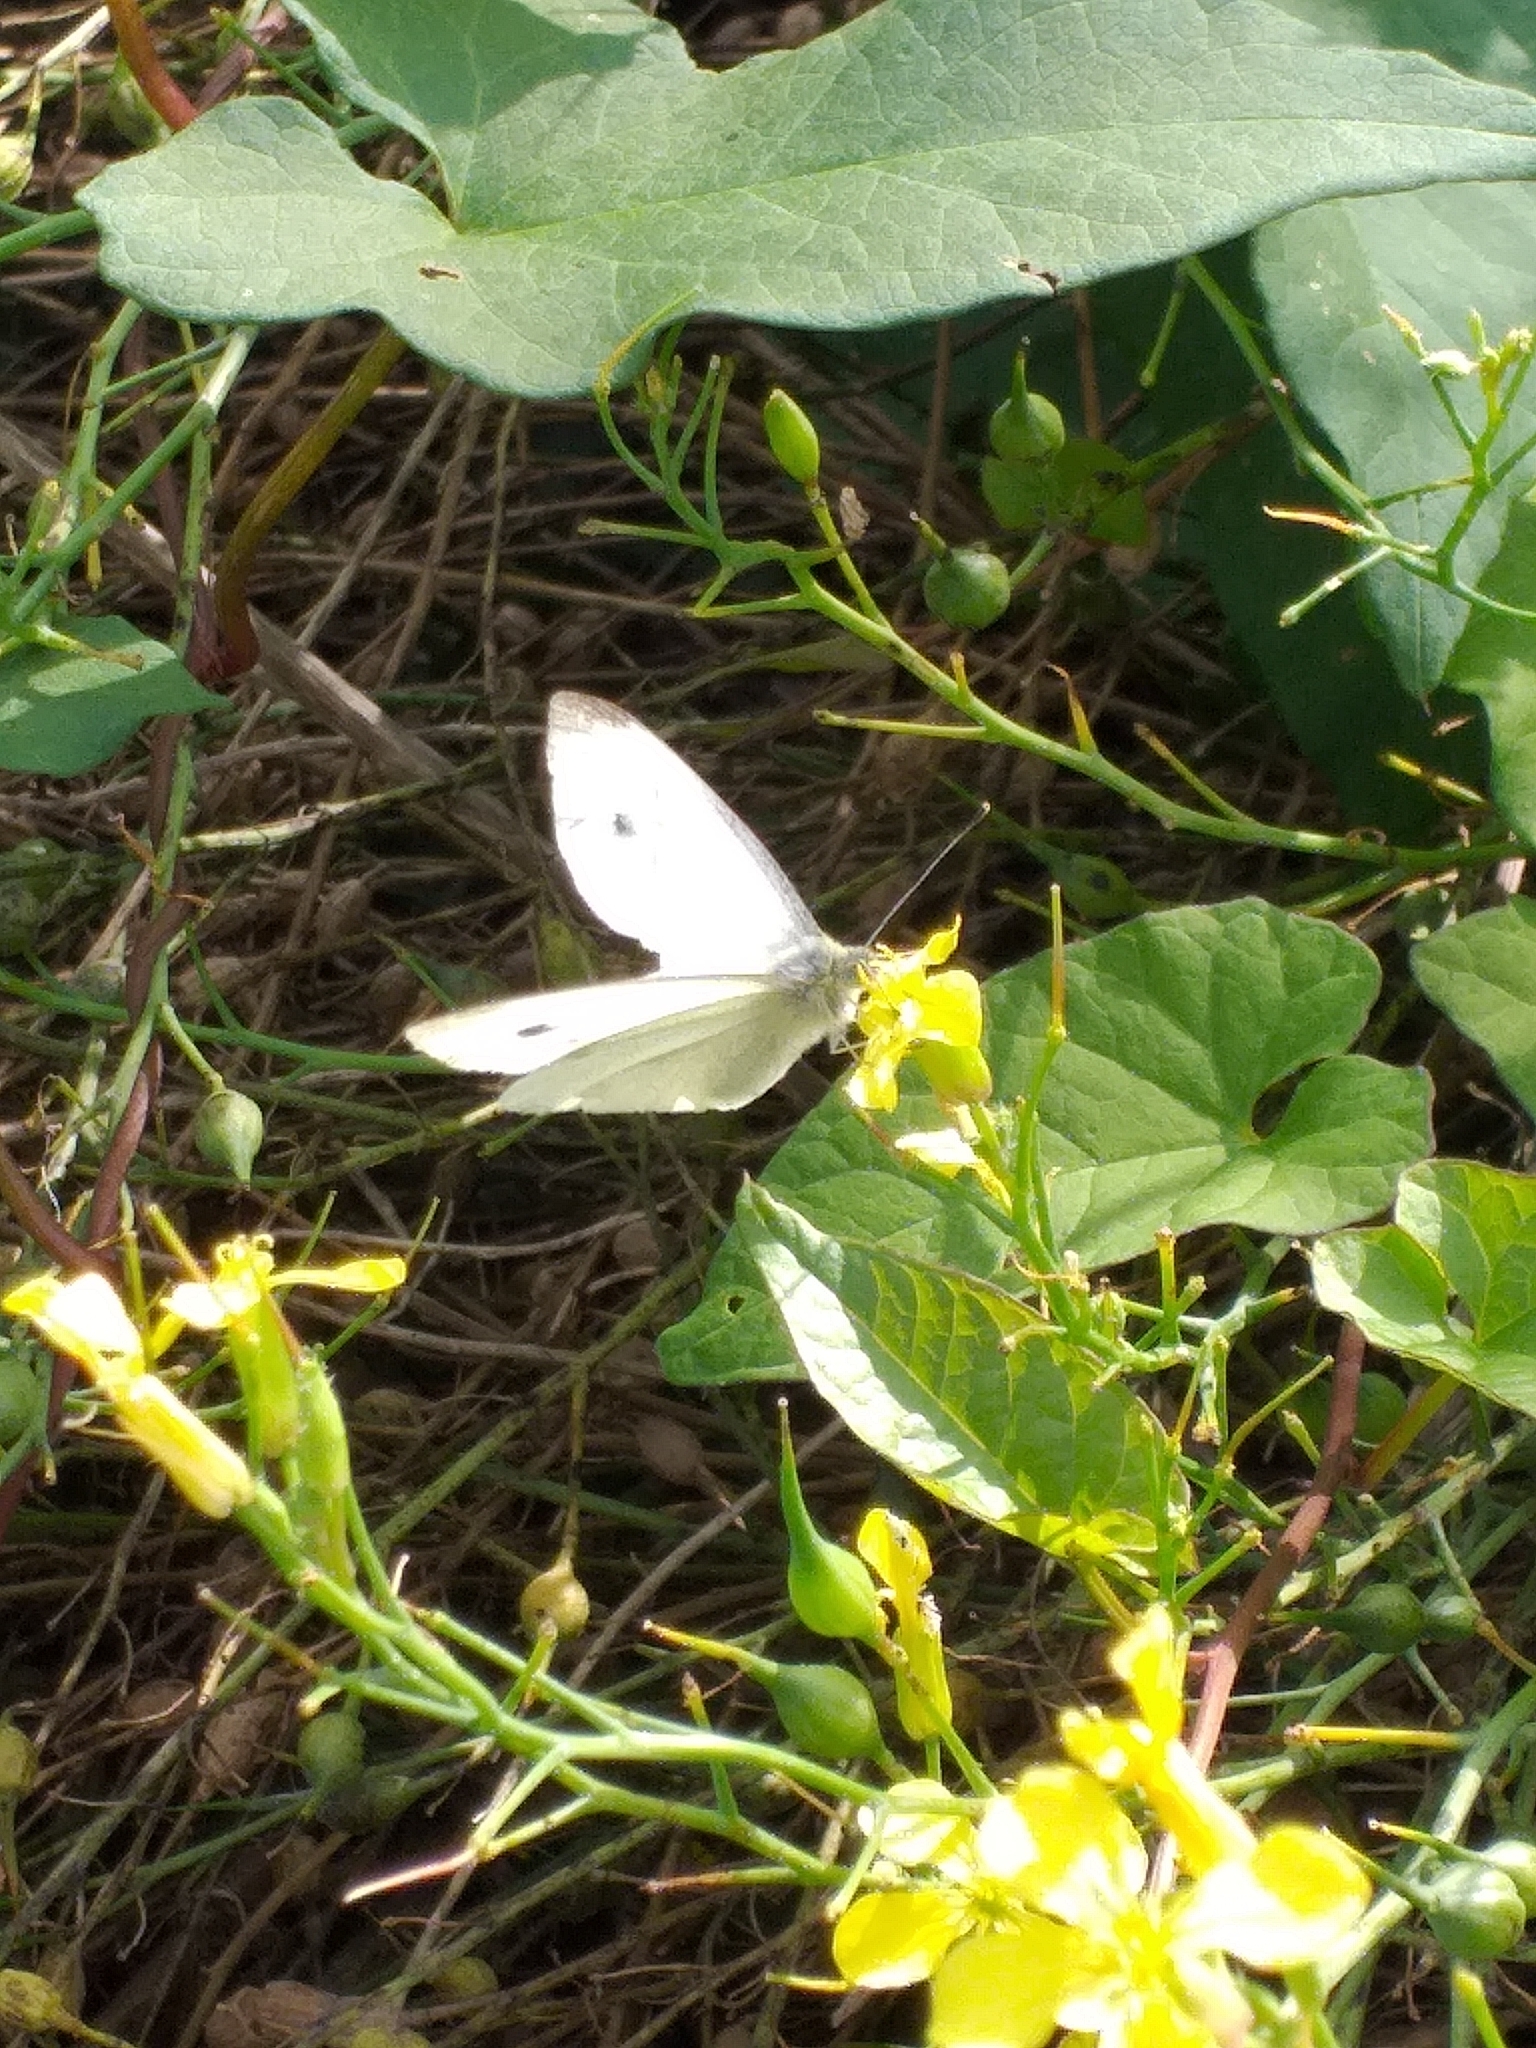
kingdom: Animalia
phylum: Arthropoda
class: Insecta
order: Lepidoptera
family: Pieridae
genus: Pieris
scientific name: Pieris rapae
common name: Small white
